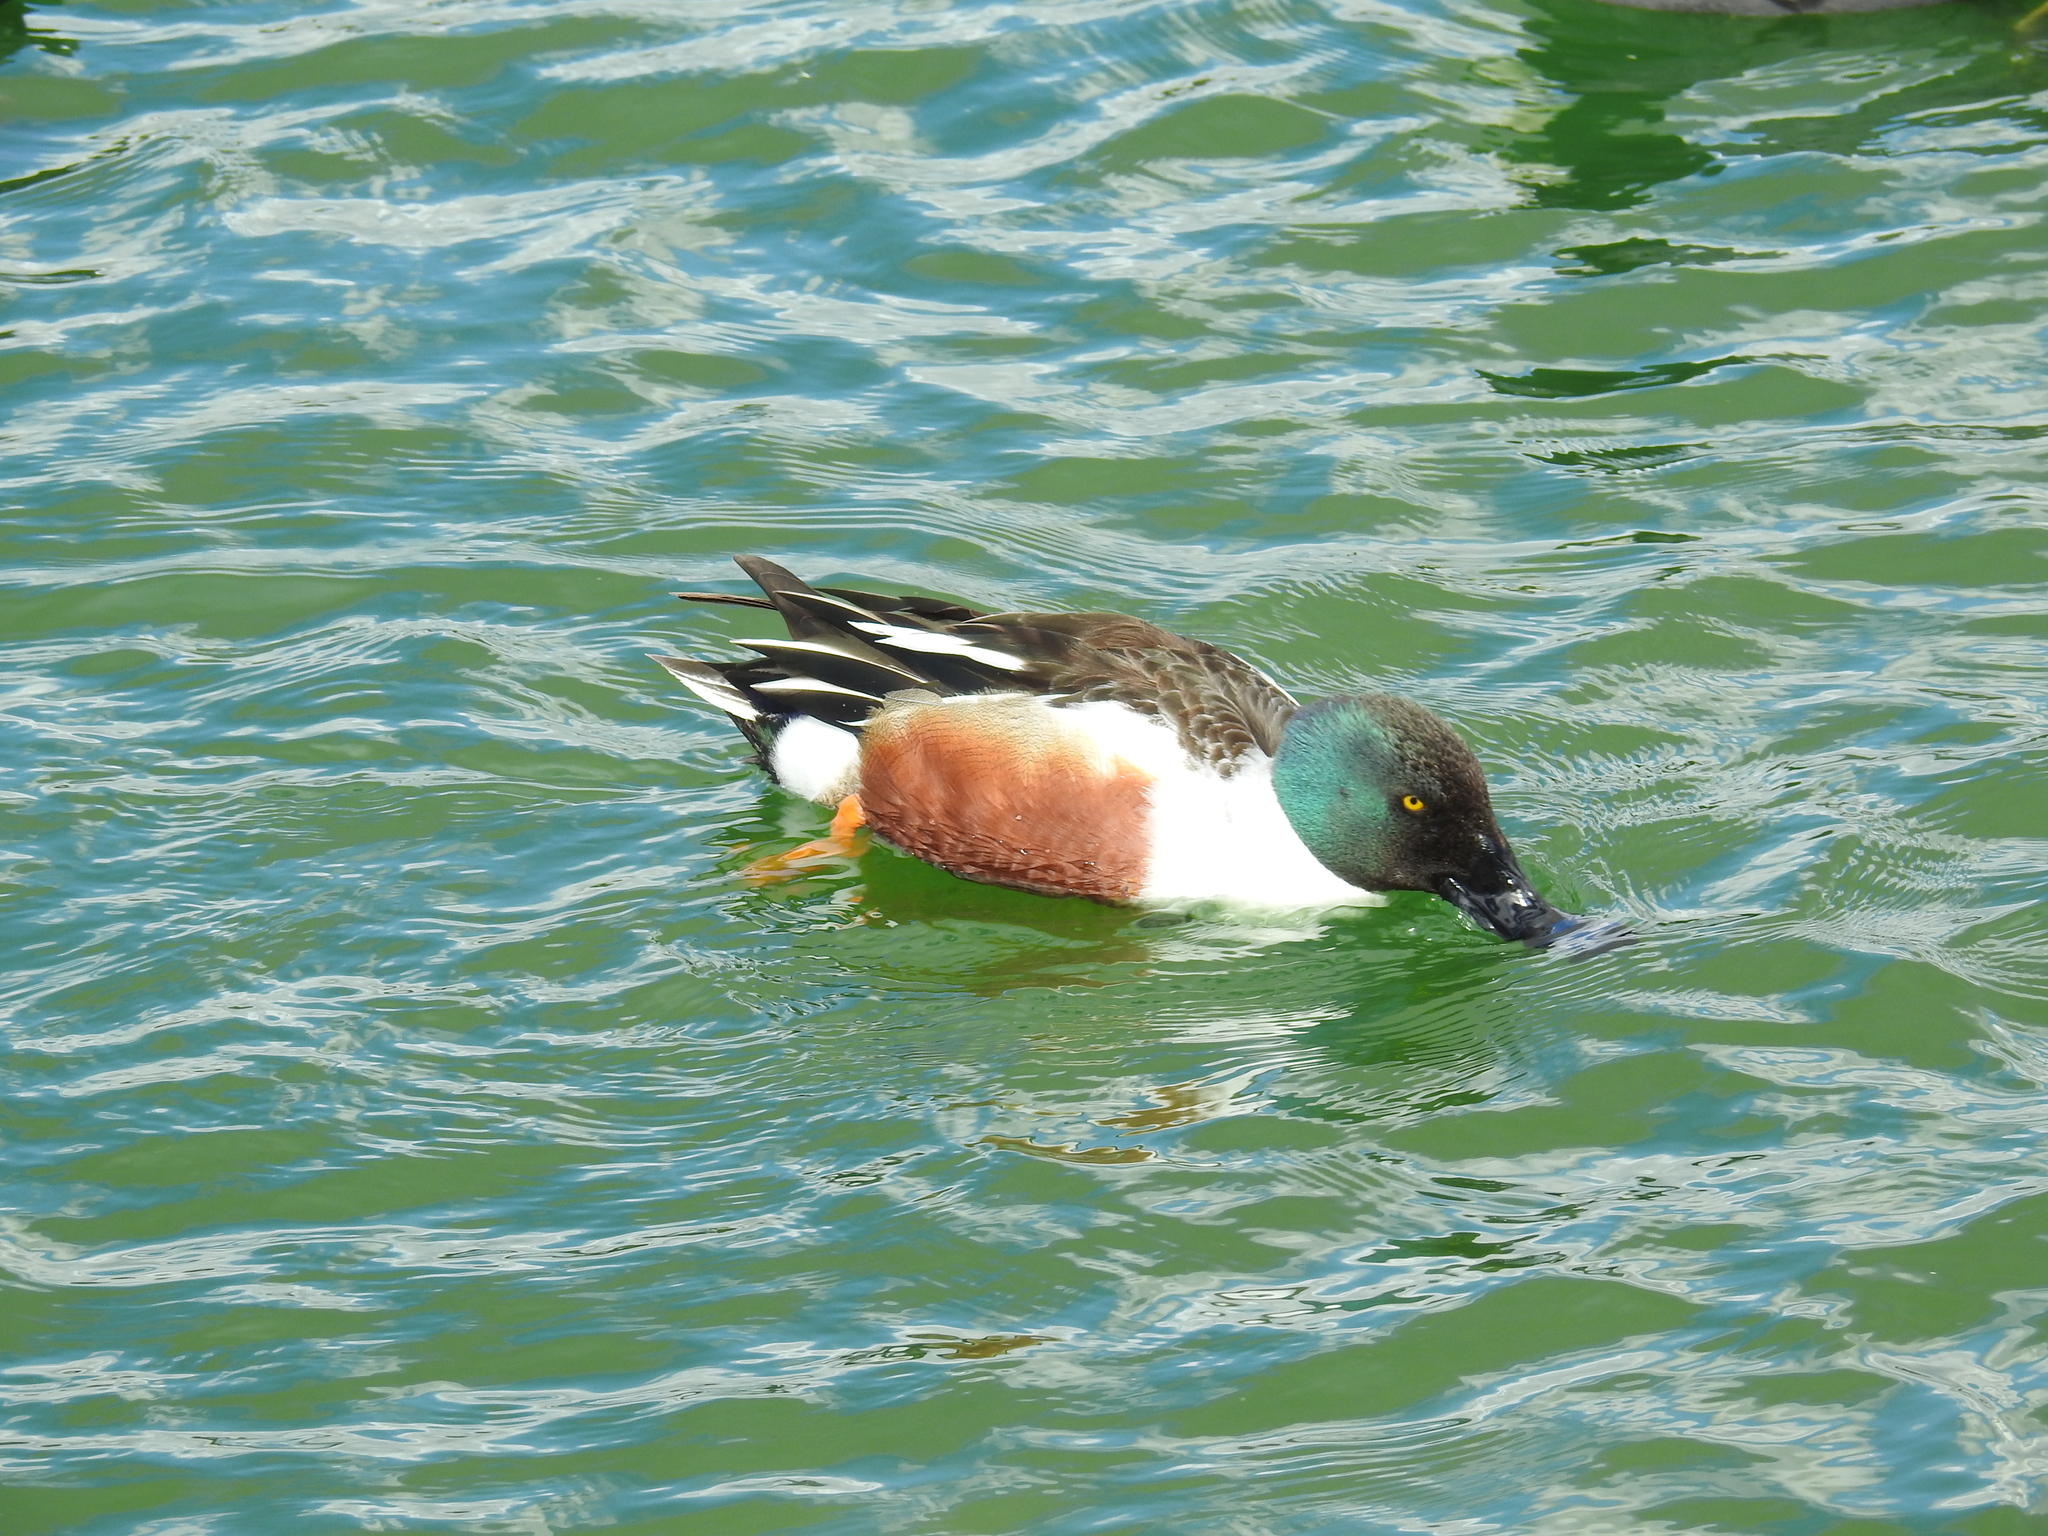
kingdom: Animalia
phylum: Chordata
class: Aves
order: Anseriformes
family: Anatidae
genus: Spatula
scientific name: Spatula clypeata
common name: Northern shoveler
